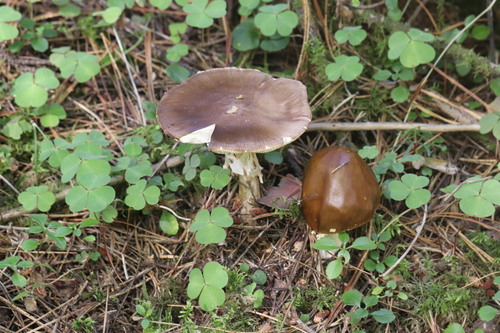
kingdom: Fungi
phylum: Basidiomycota
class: Agaricomycetes
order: Agaricales
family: Amanitaceae
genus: Amanita
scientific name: Amanita pantherina
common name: Panthercap
